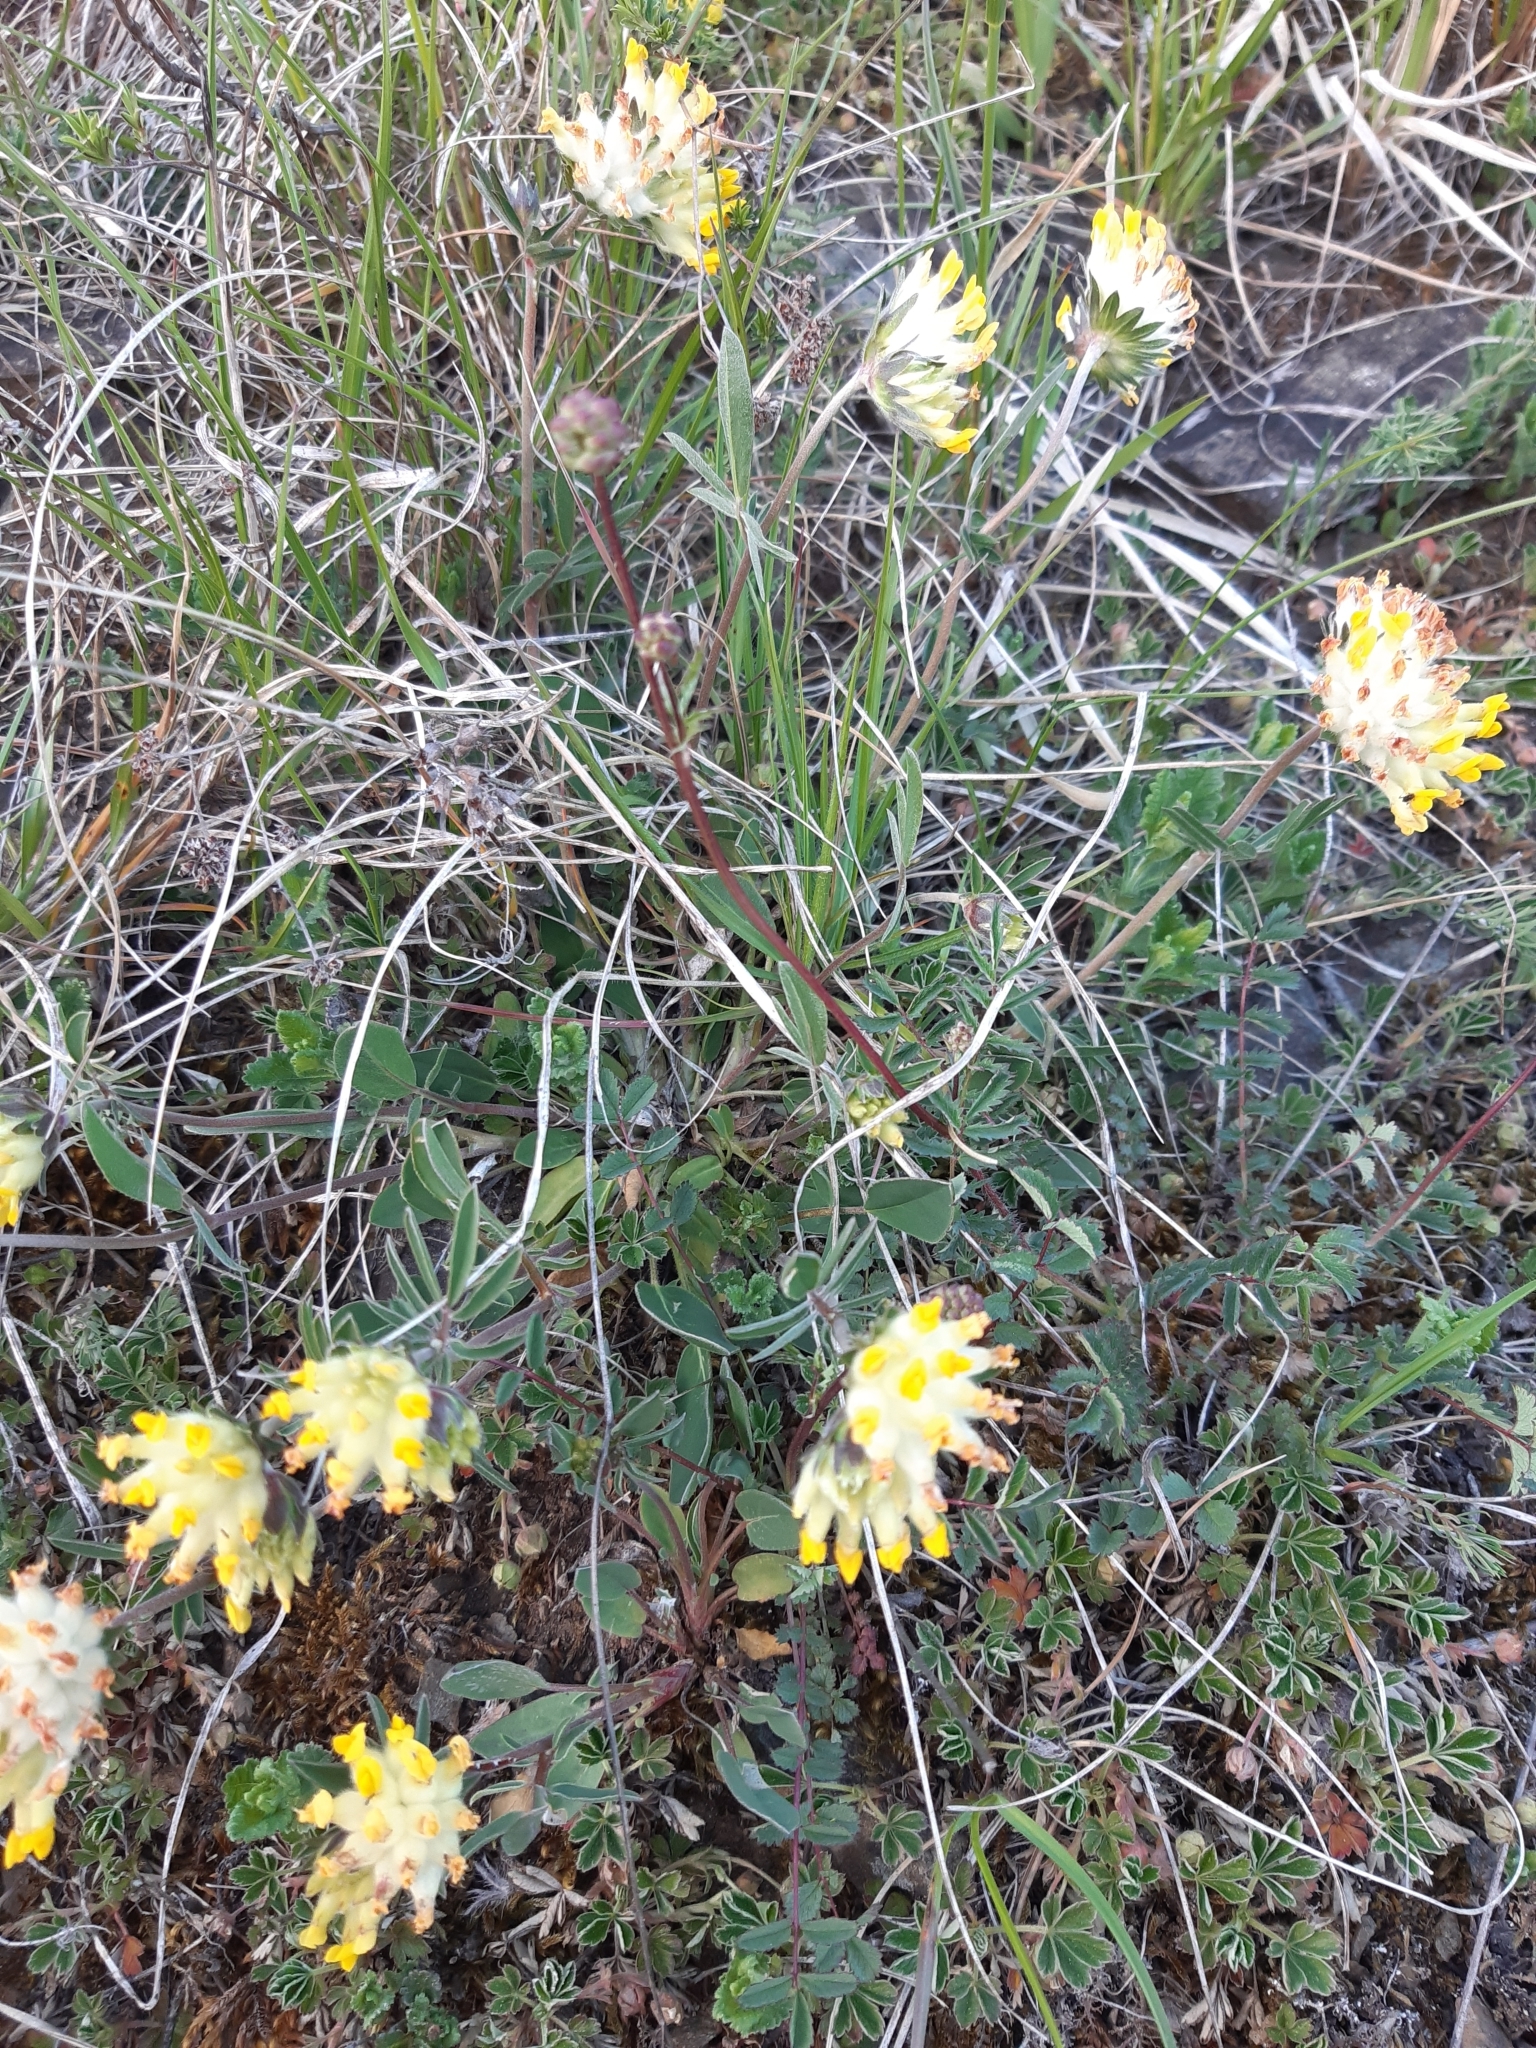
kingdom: Plantae
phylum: Tracheophyta
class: Magnoliopsida
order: Fabales
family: Fabaceae
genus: Anthyllis
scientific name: Anthyllis vulneraria
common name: Kidney vetch
